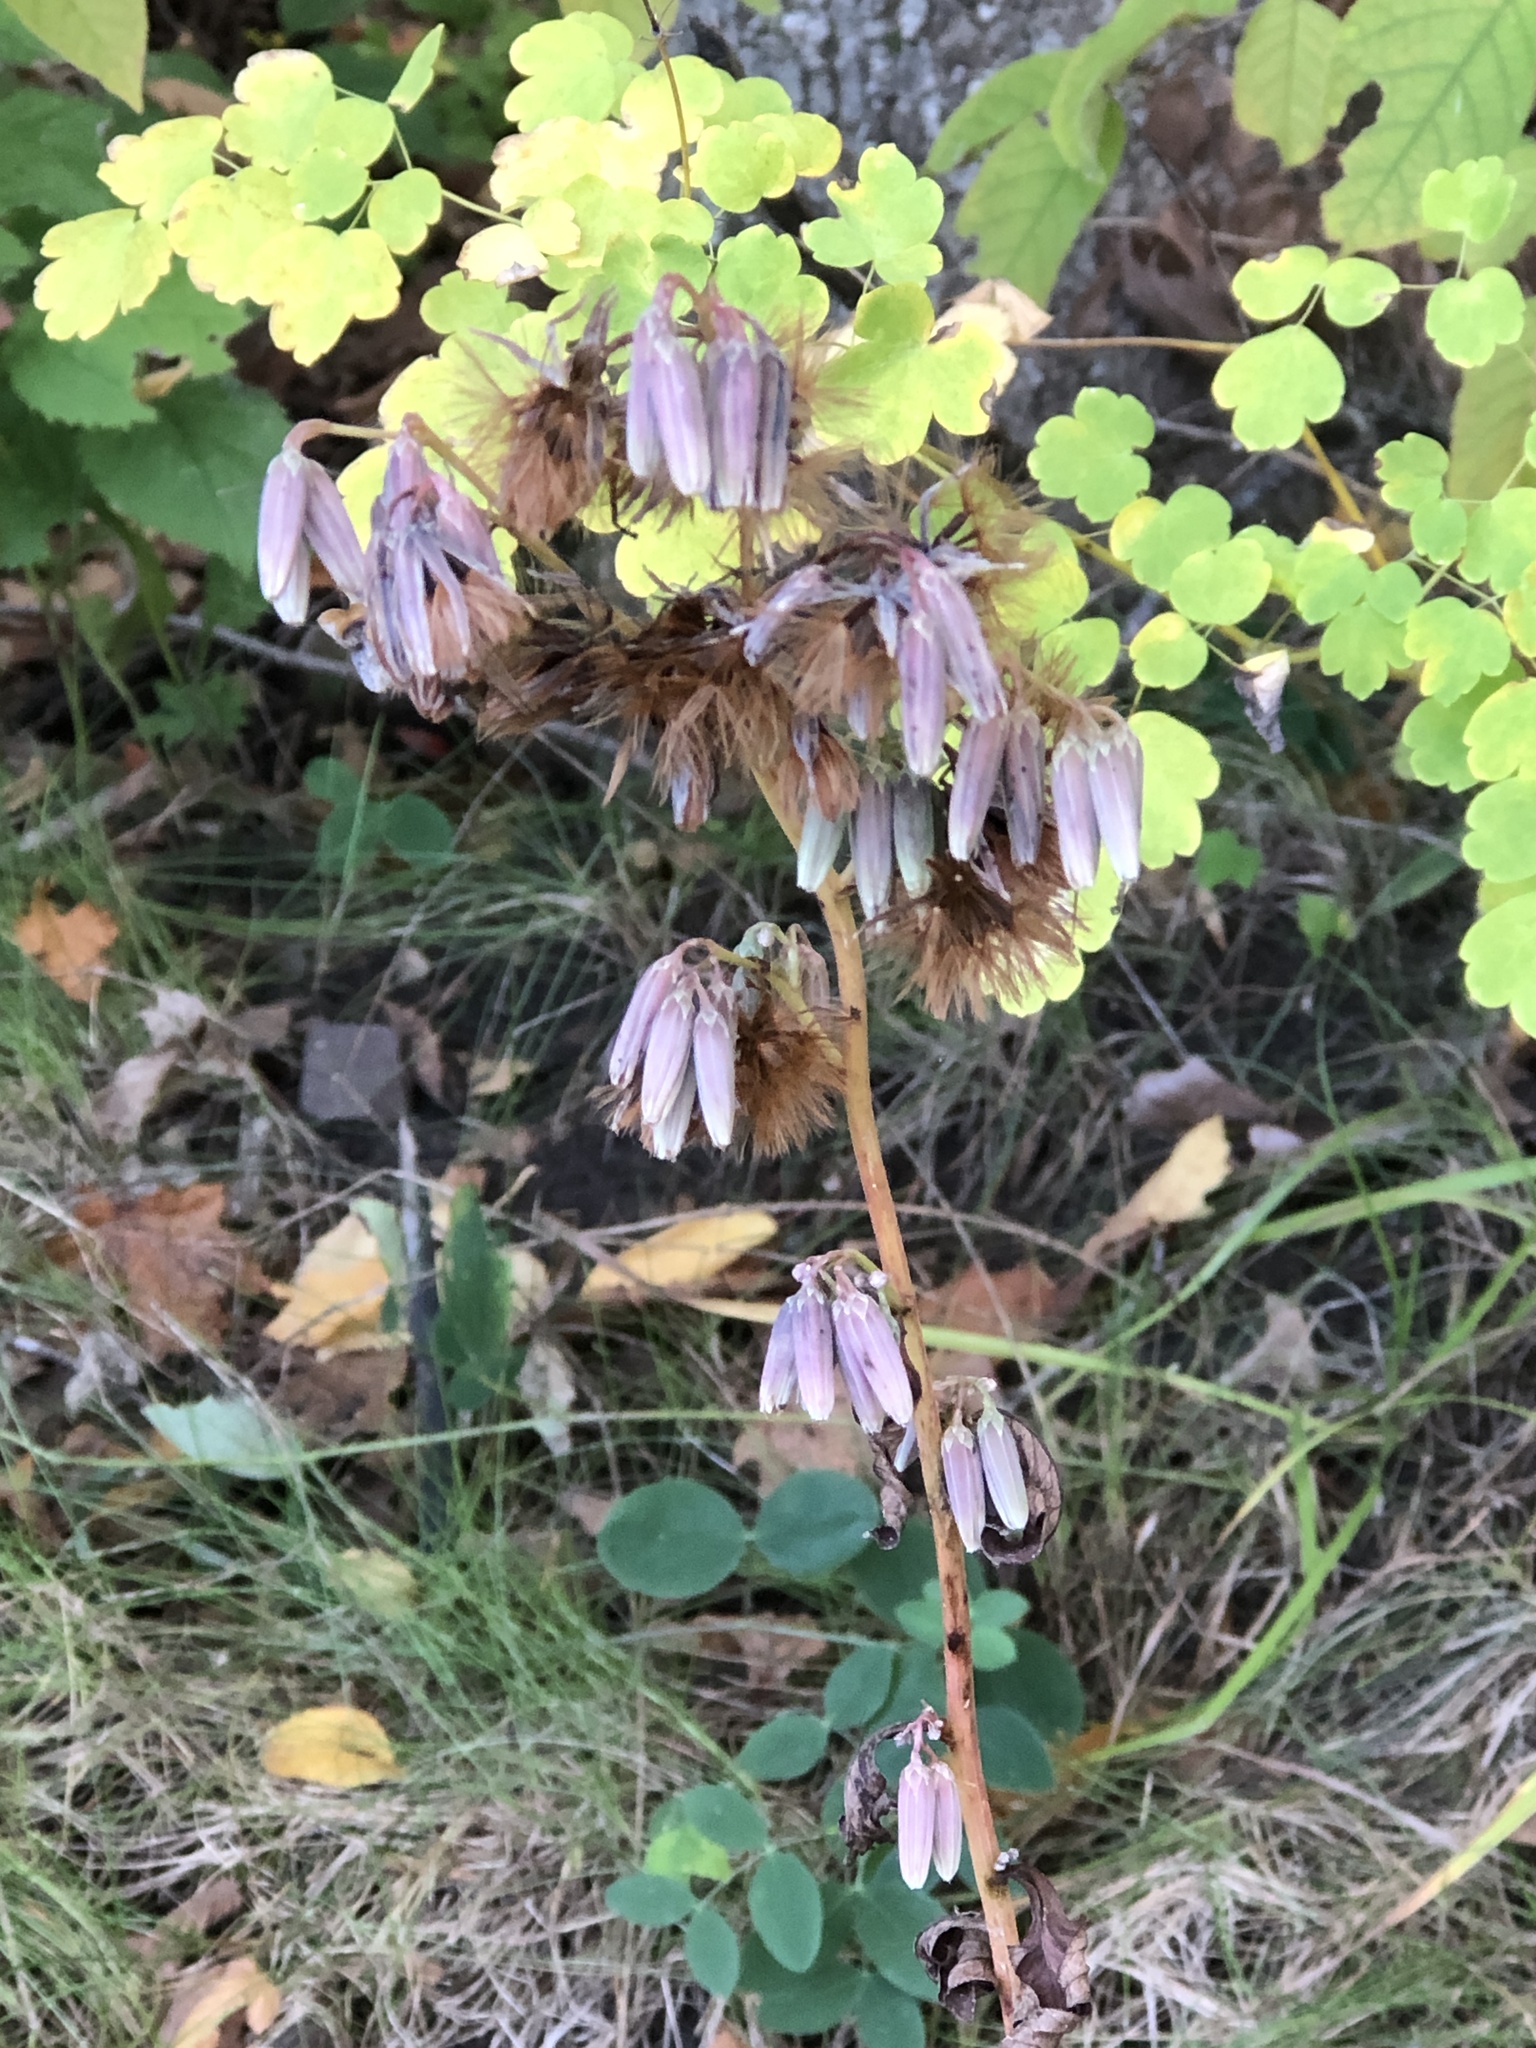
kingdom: Plantae
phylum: Tracheophyta
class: Magnoliopsida
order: Asterales
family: Asteraceae
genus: Nabalus
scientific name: Nabalus albus
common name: White rattlesnakeroot
